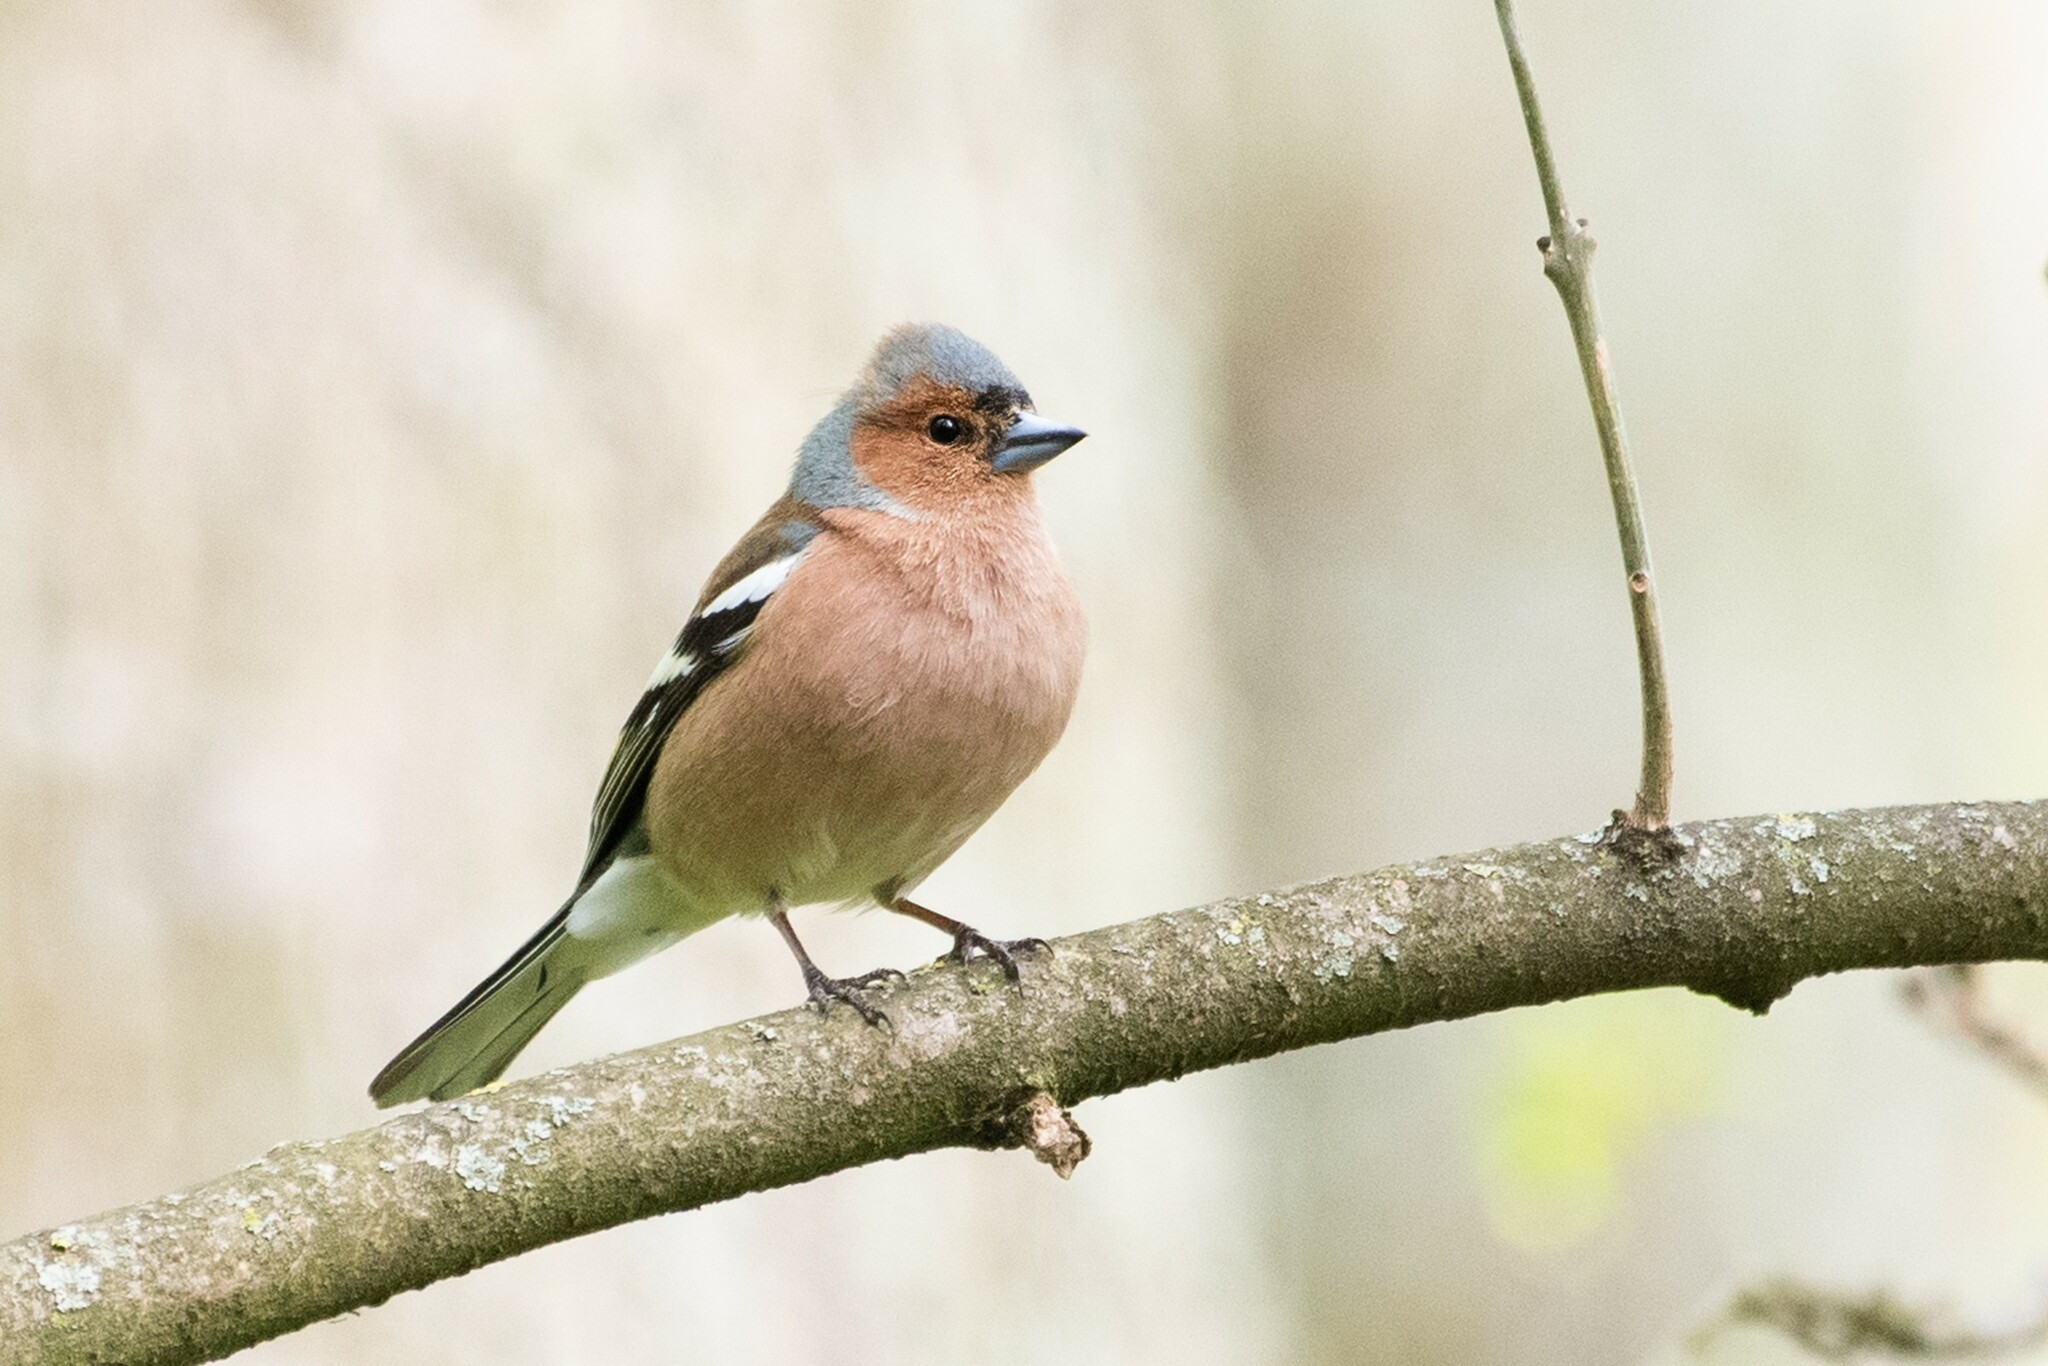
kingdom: Animalia
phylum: Chordata
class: Aves
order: Passeriformes
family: Fringillidae
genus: Fringilla
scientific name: Fringilla coelebs
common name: Common chaffinch
